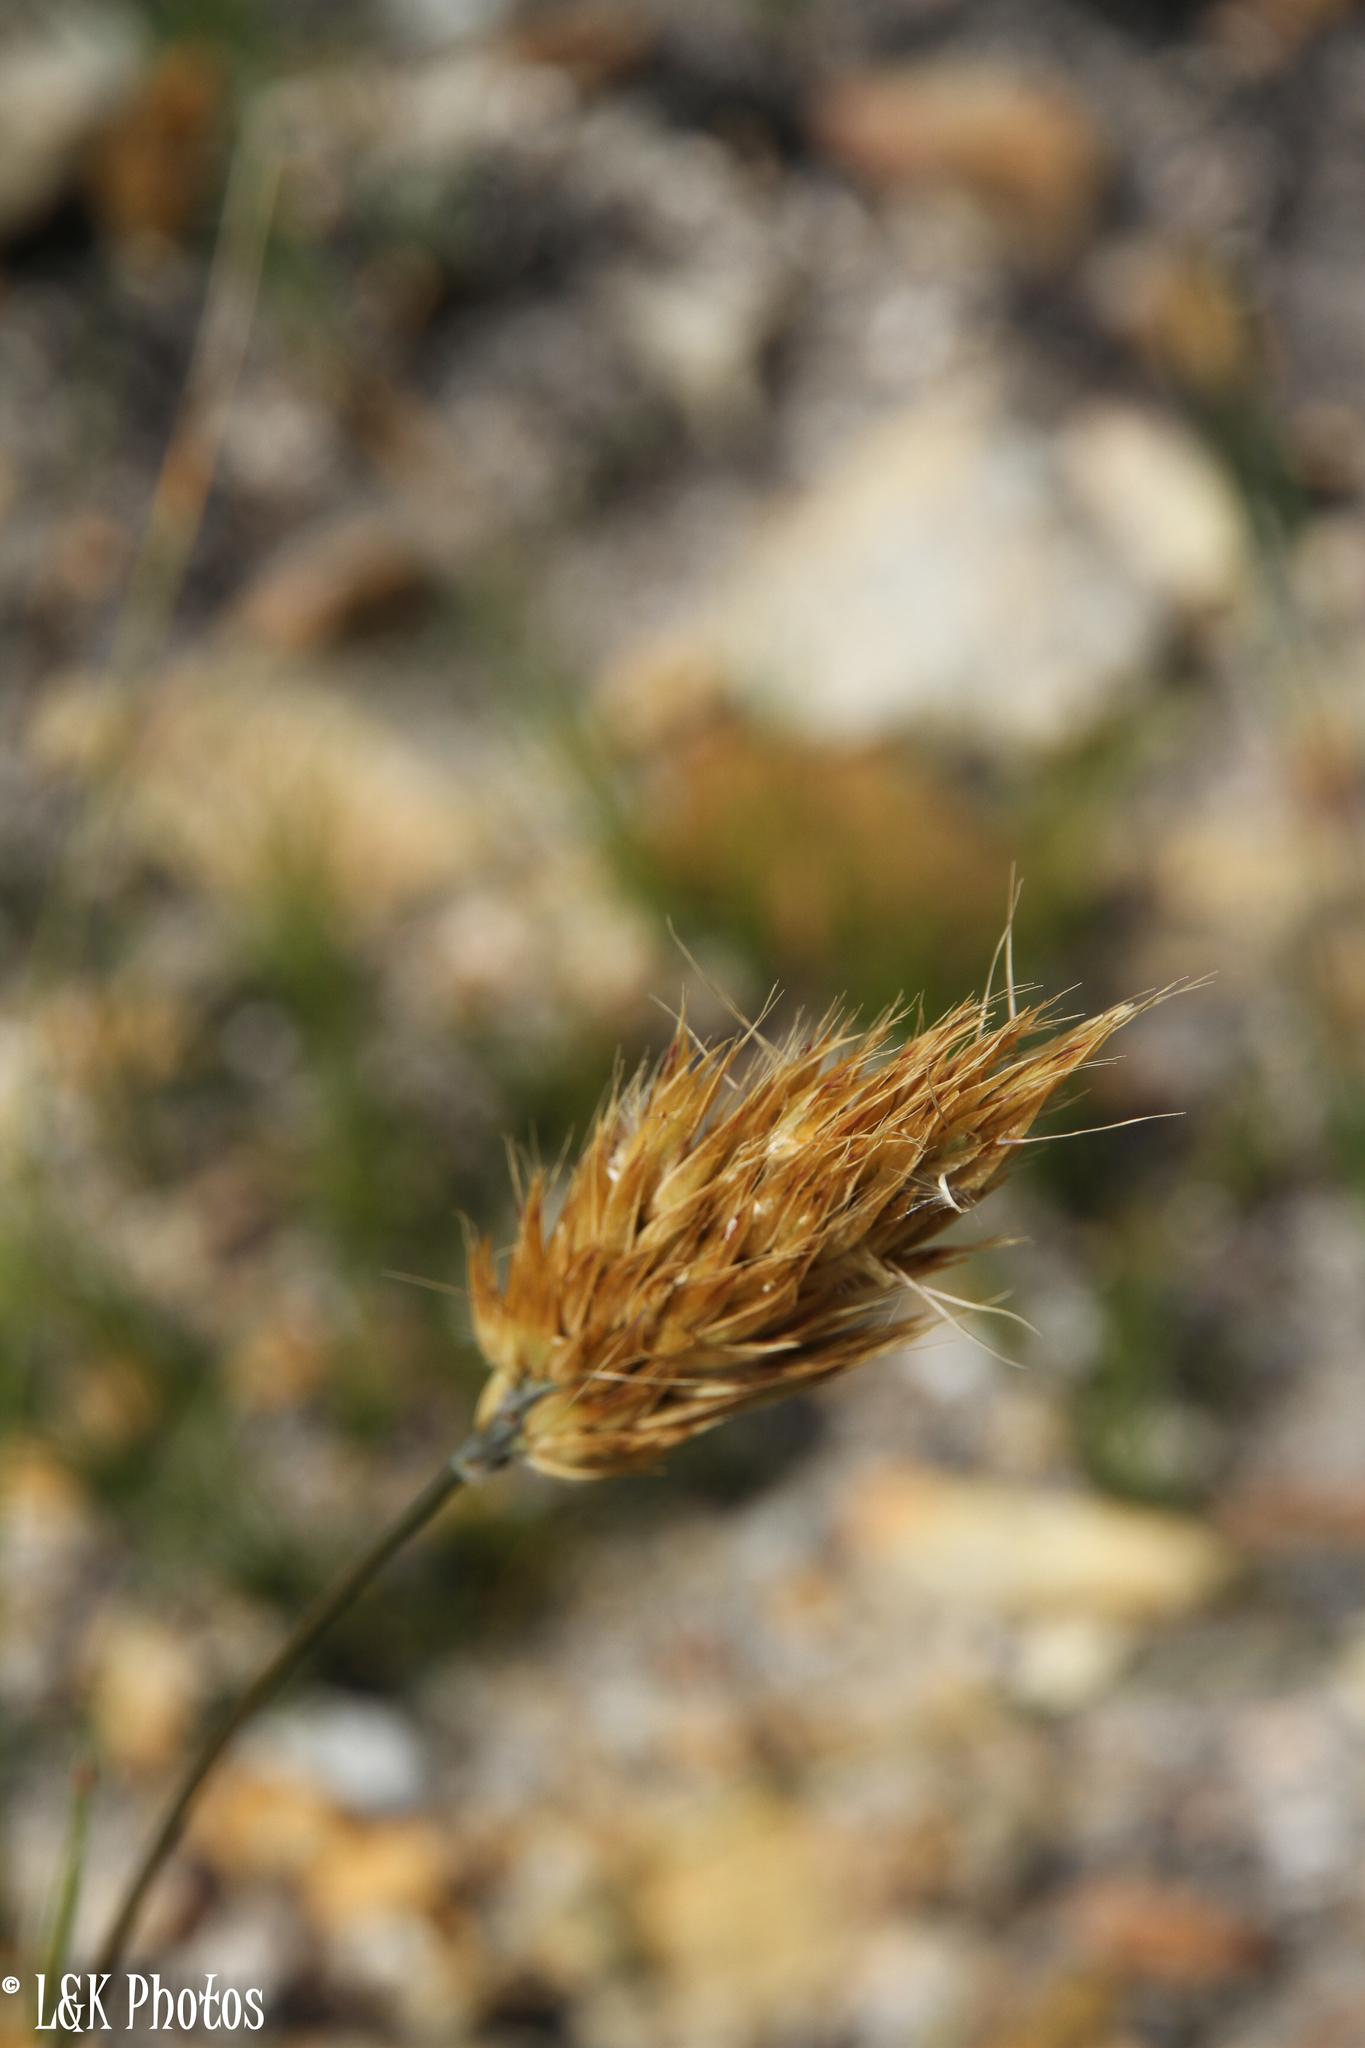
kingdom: Plantae
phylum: Tracheophyta
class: Liliopsida
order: Poales
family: Poaceae
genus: Geochloa
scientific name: Geochloa rufa
